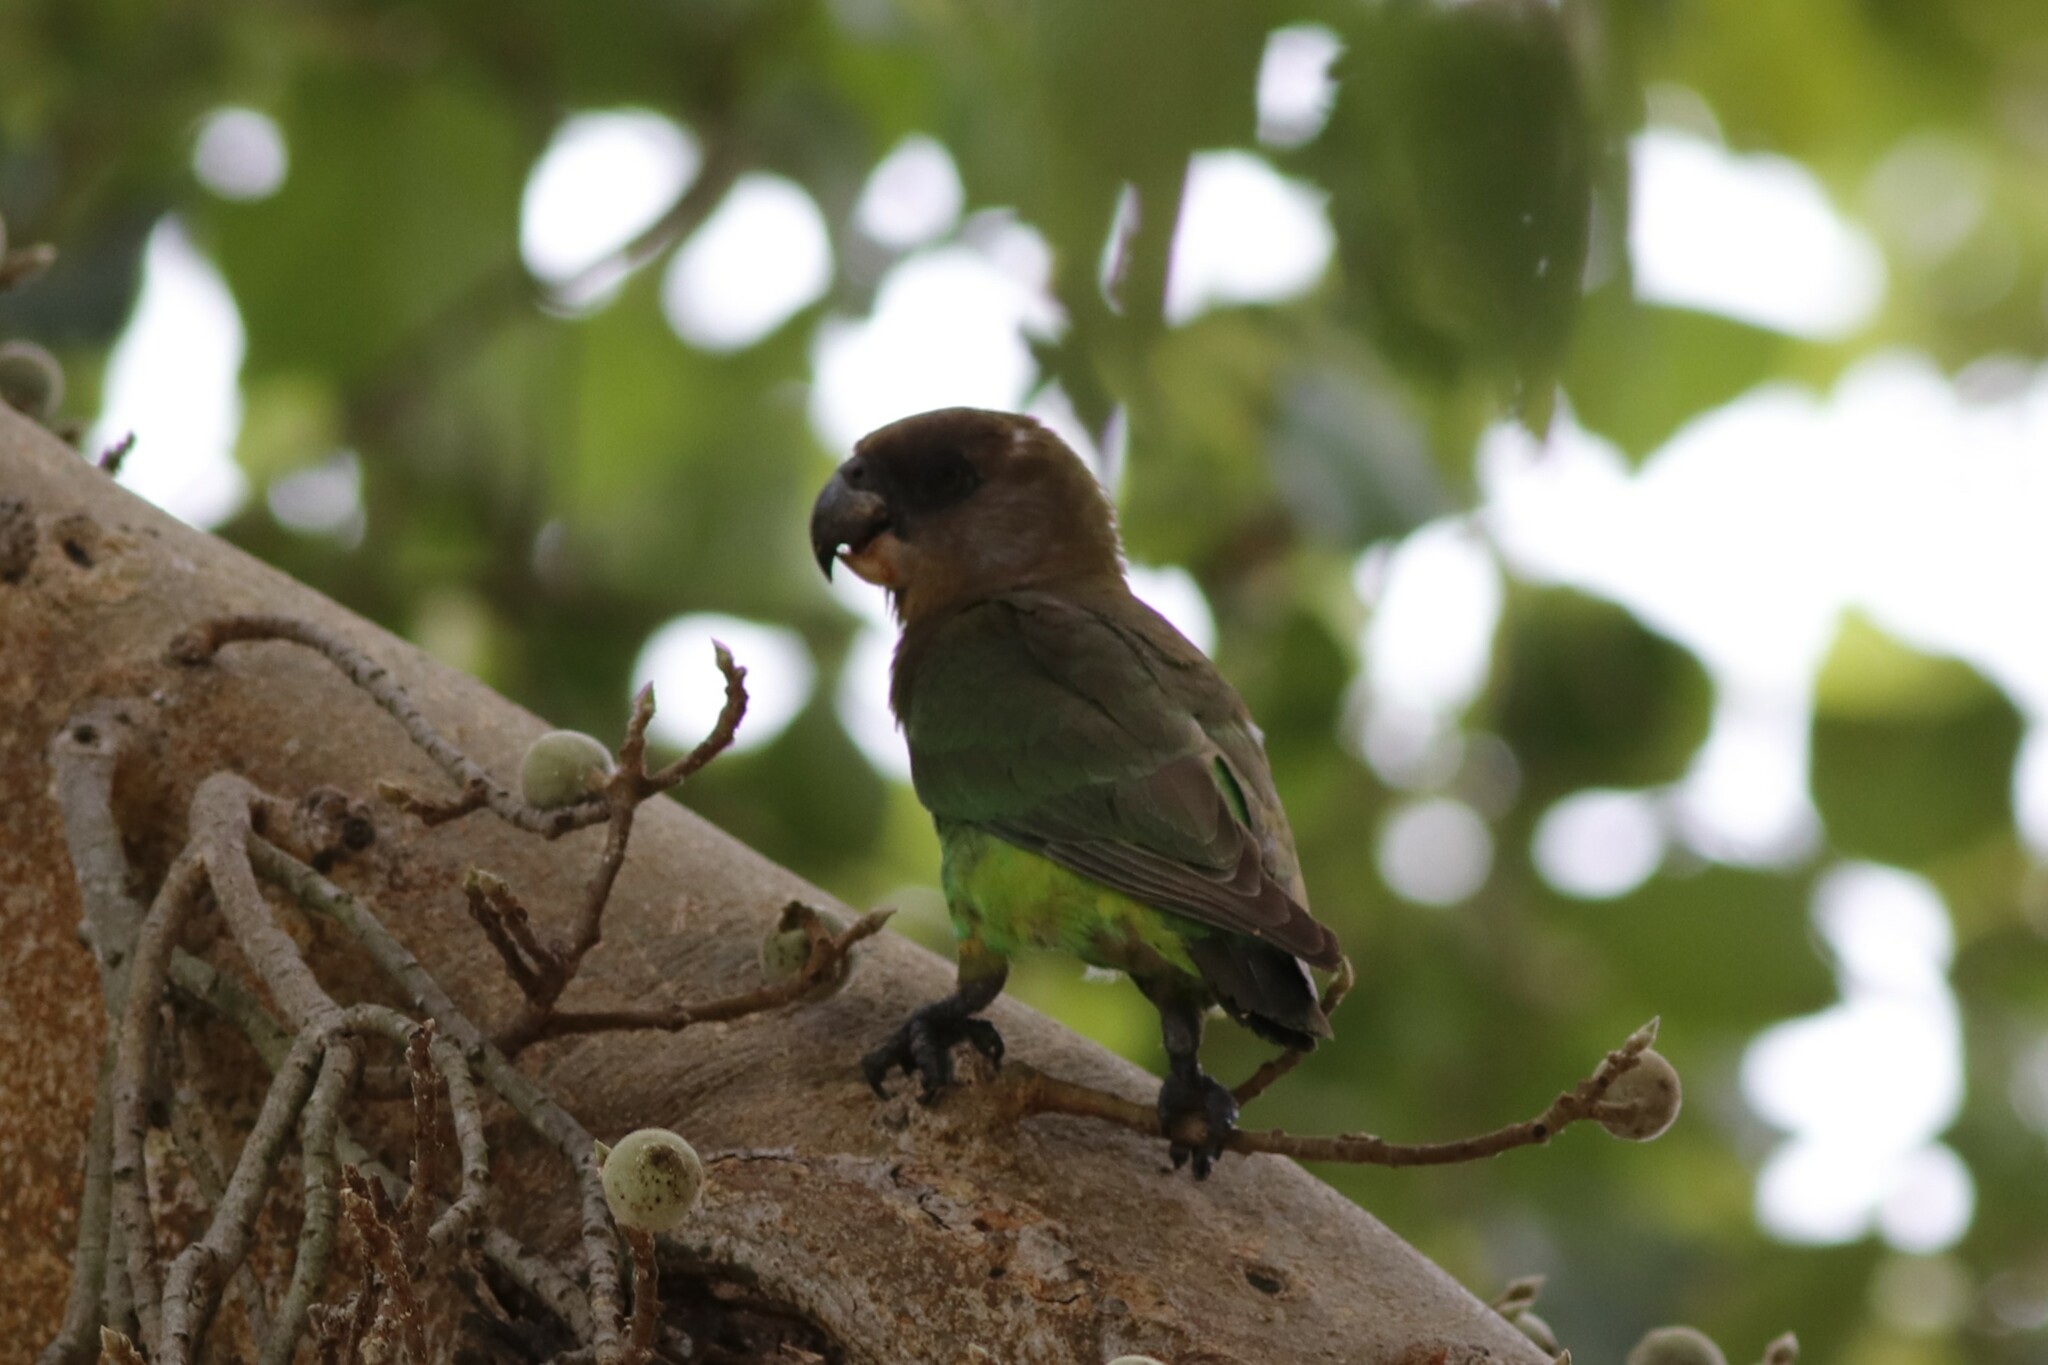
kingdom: Animalia
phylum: Chordata
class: Aves
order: Psittaciformes
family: Psittacidae
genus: Poicephalus
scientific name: Poicephalus cryptoxanthus
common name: Brown-headed parrot
